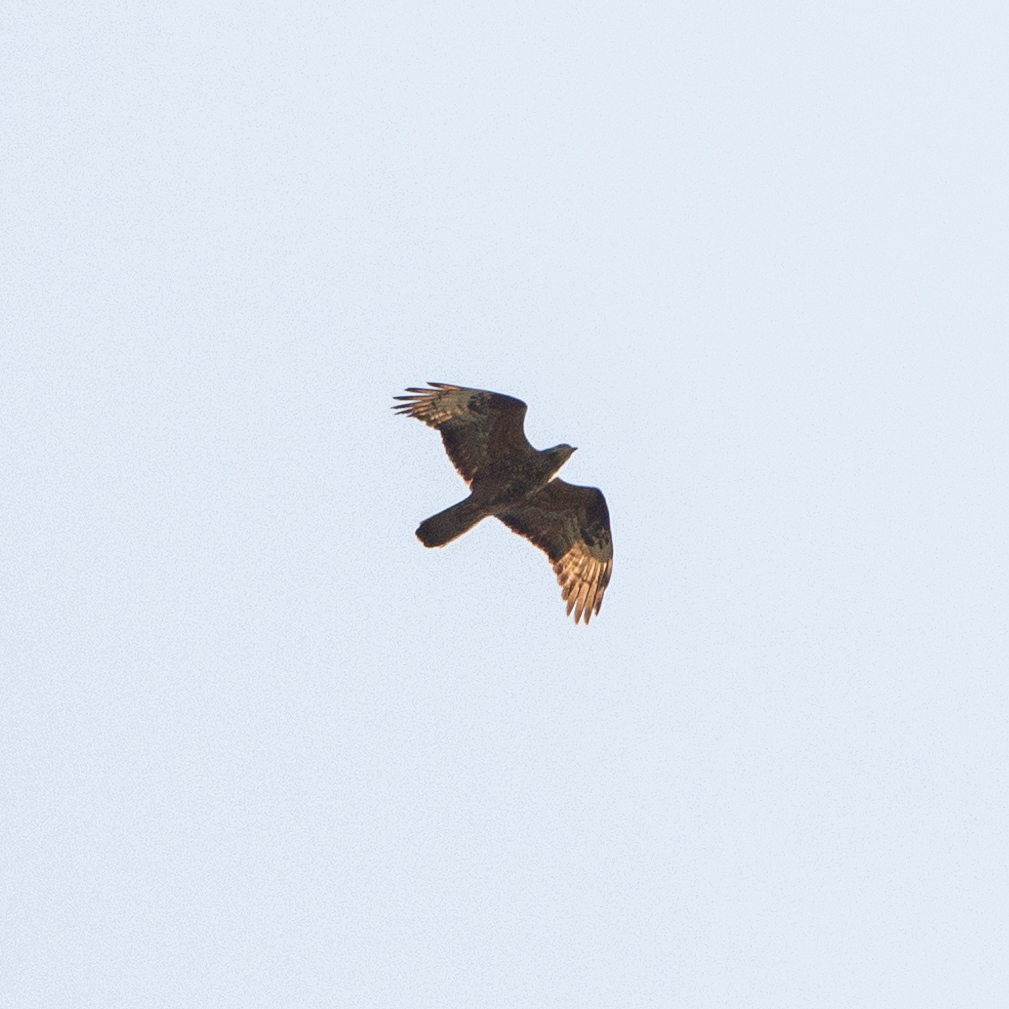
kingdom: Animalia
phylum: Chordata
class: Aves
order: Accipitriformes
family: Accipitridae
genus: Pernis
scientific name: Pernis apivorus
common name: European honey buzzard
